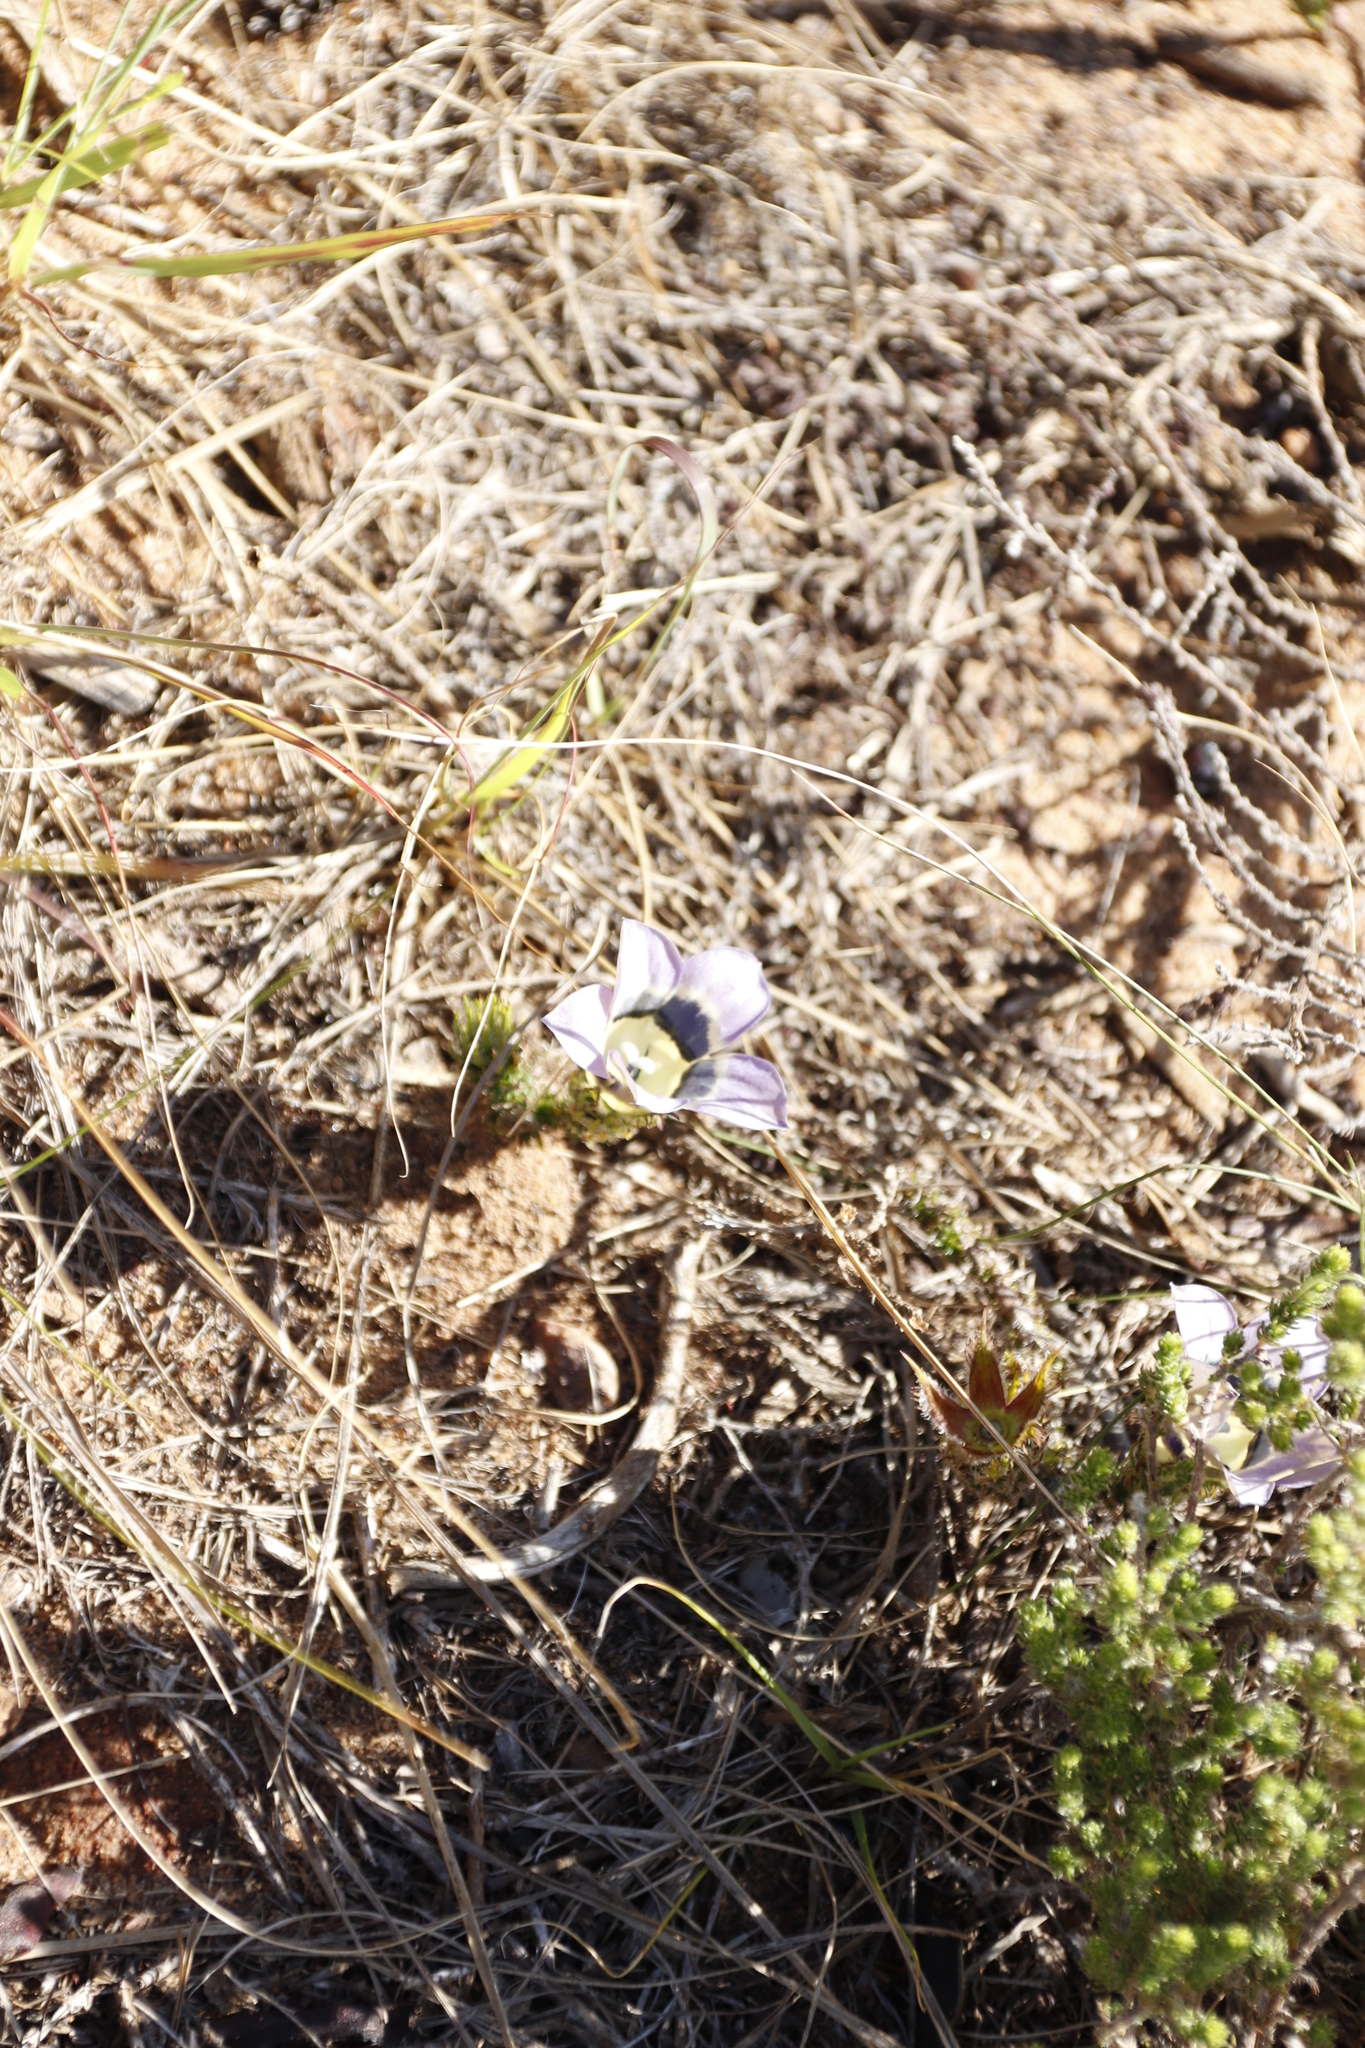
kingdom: Plantae
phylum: Tracheophyta
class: Magnoliopsida
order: Asterales
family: Campanulaceae
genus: Roella
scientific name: Roella ciliata
